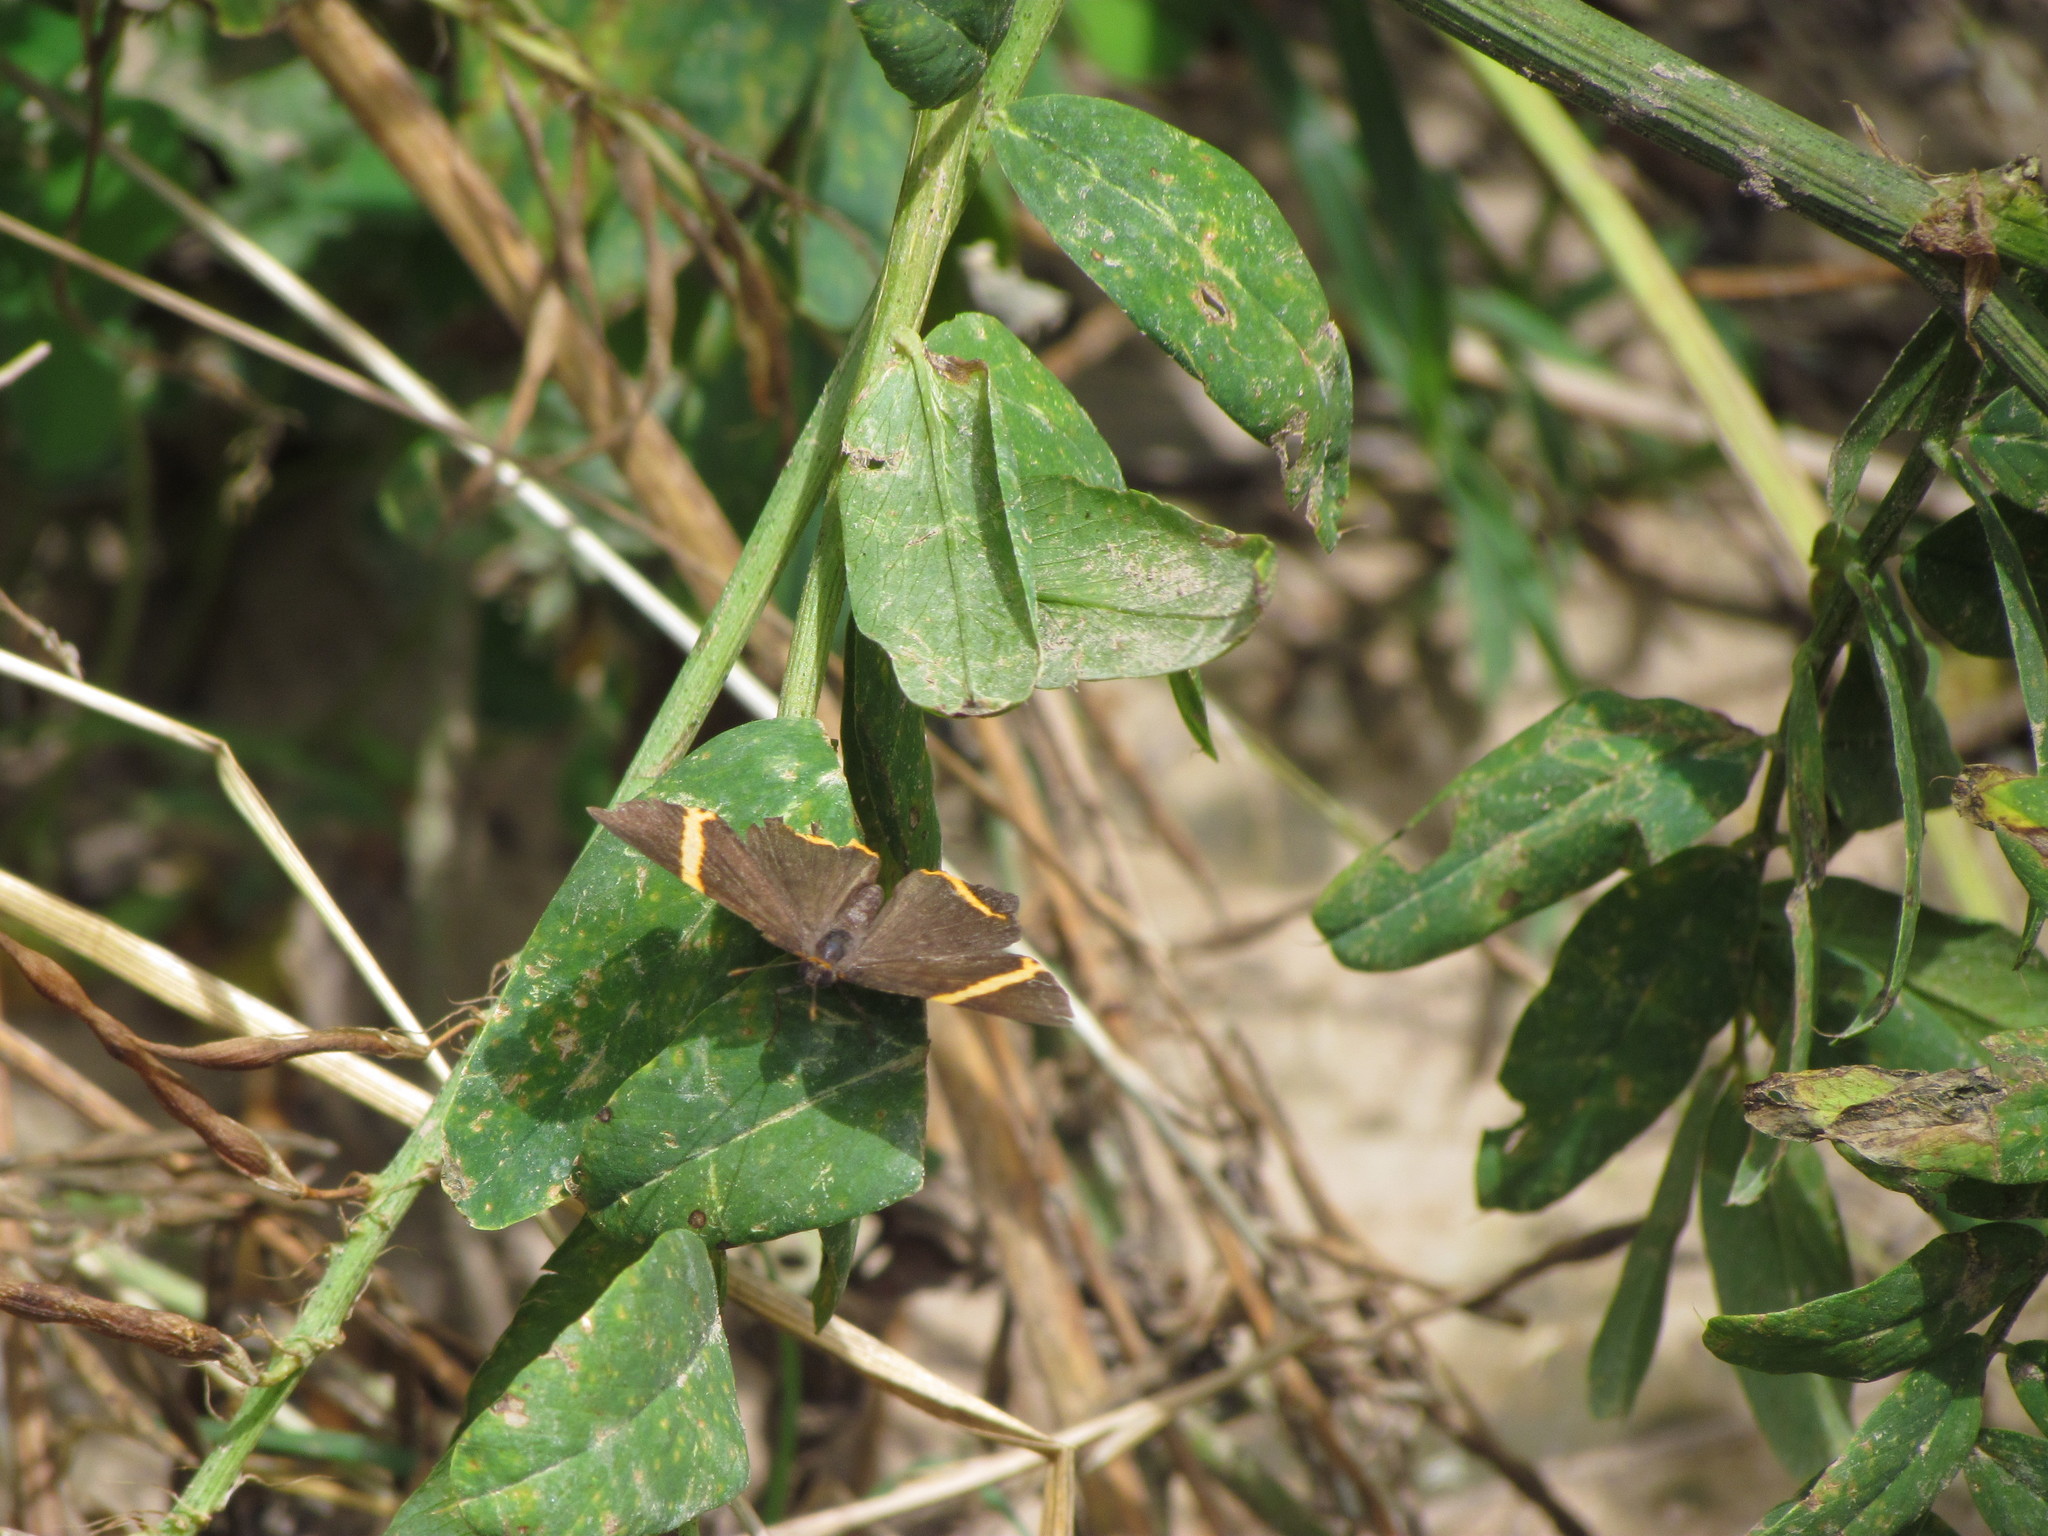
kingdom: Animalia
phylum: Arthropoda
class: Insecta
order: Lepidoptera
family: Riodinidae
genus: Riodina
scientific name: Riodina lysippoides
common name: Little dancer metalmark
